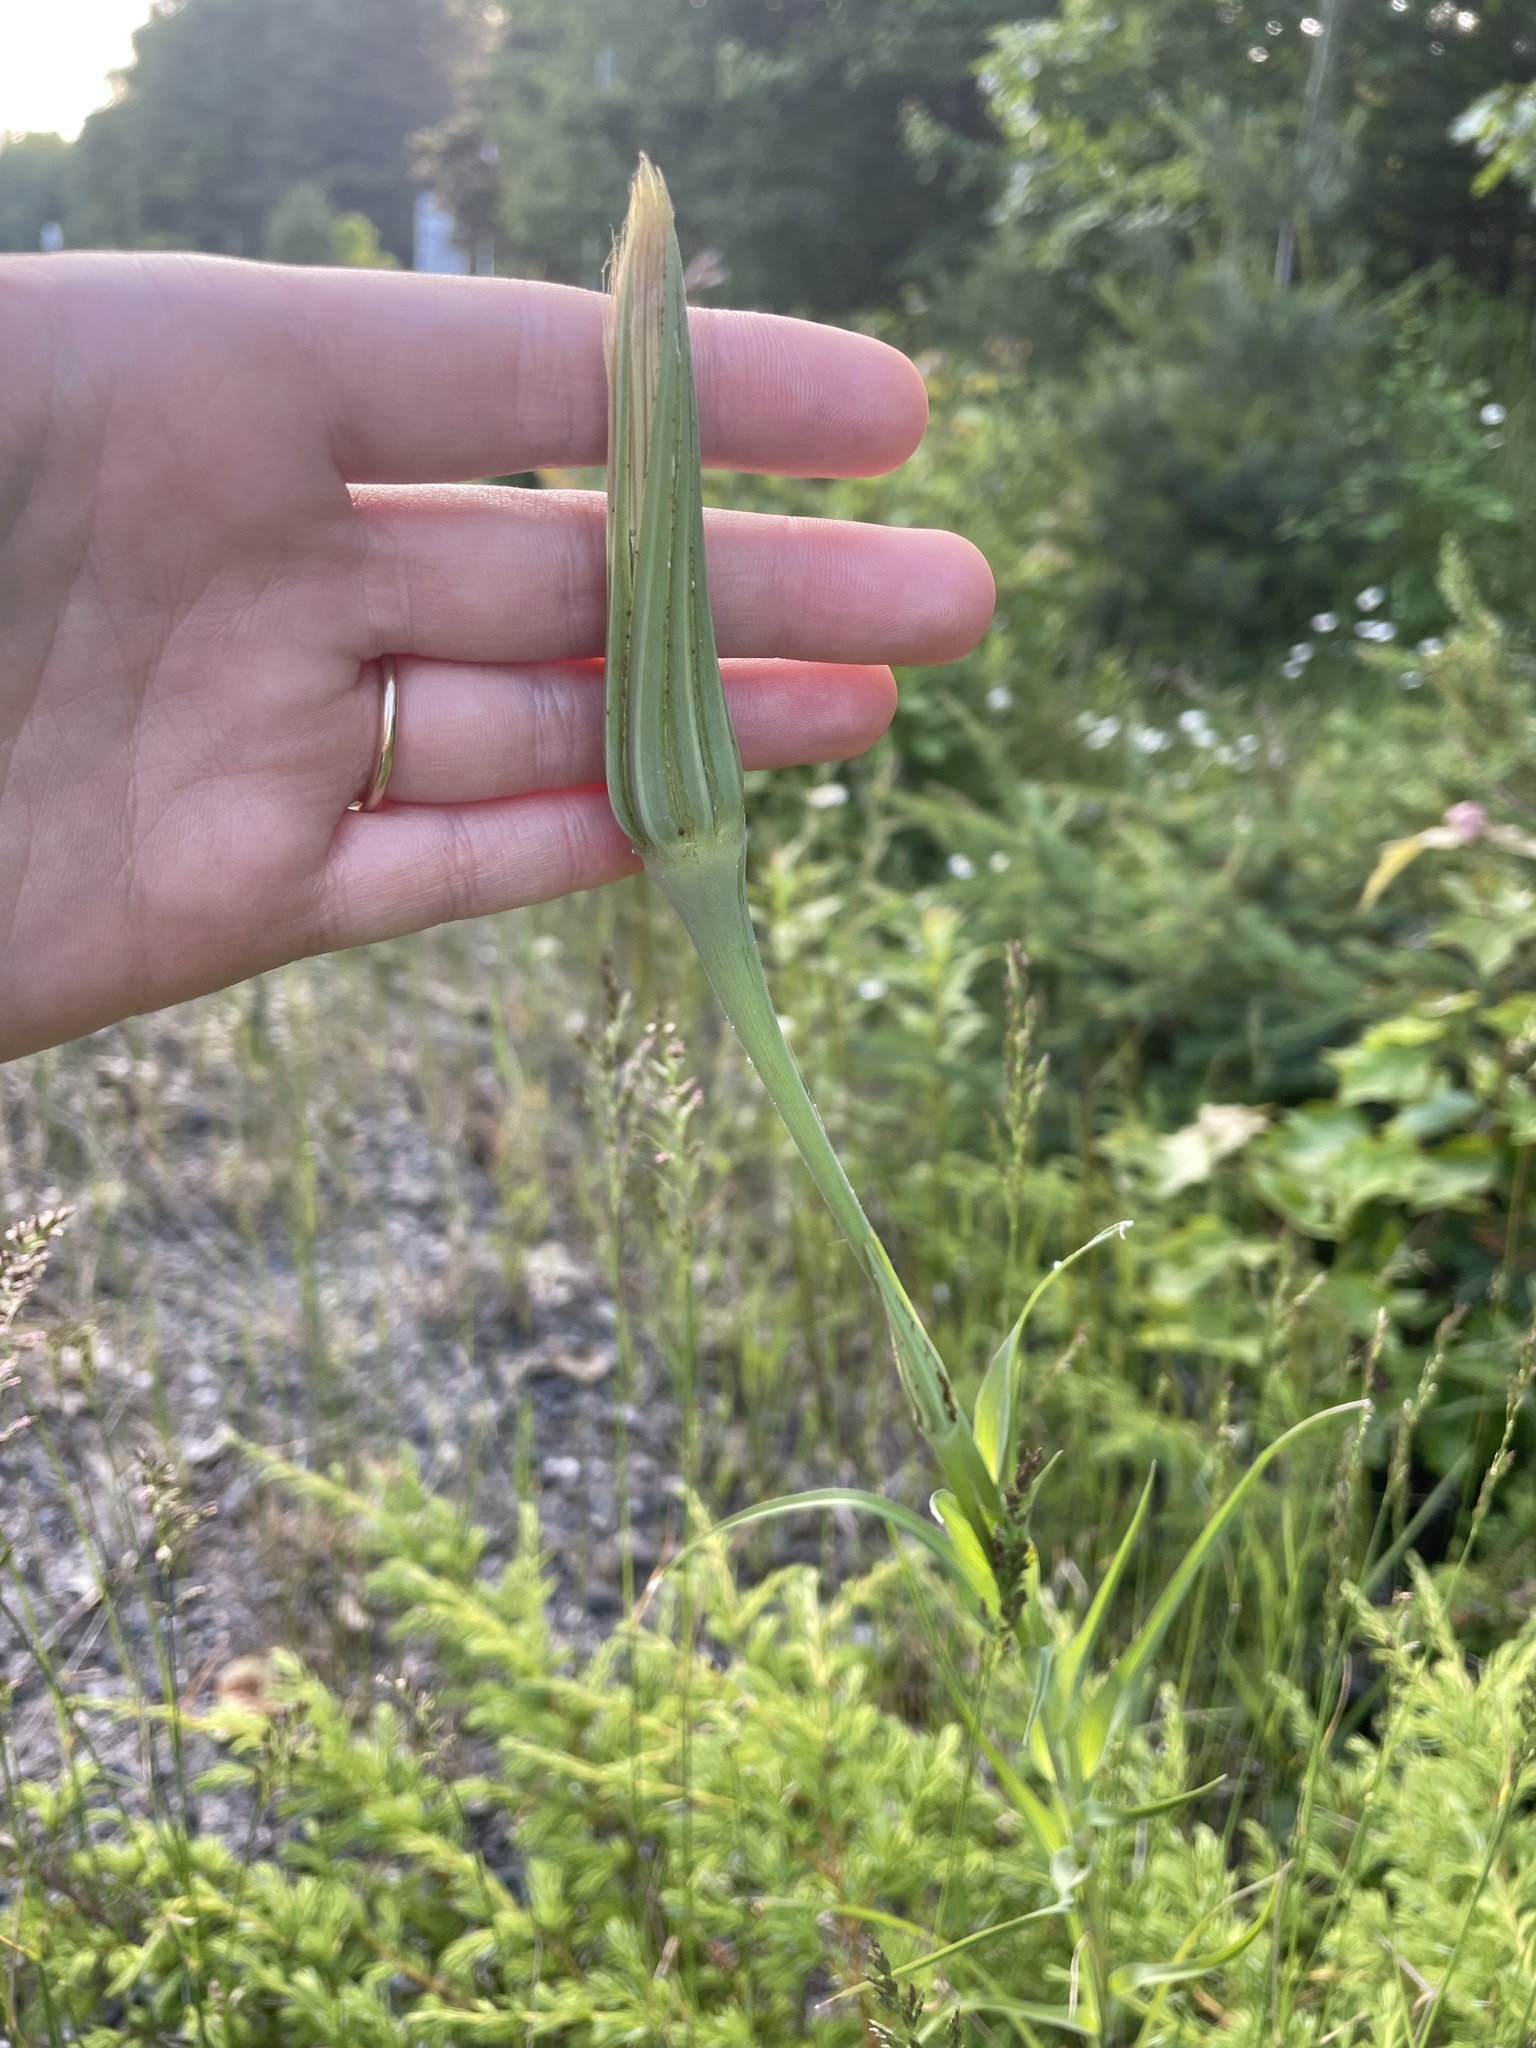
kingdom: Plantae
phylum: Tracheophyta
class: Magnoliopsida
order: Asterales
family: Asteraceae
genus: Tragopogon
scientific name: Tragopogon dubius
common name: Yellow salsify
